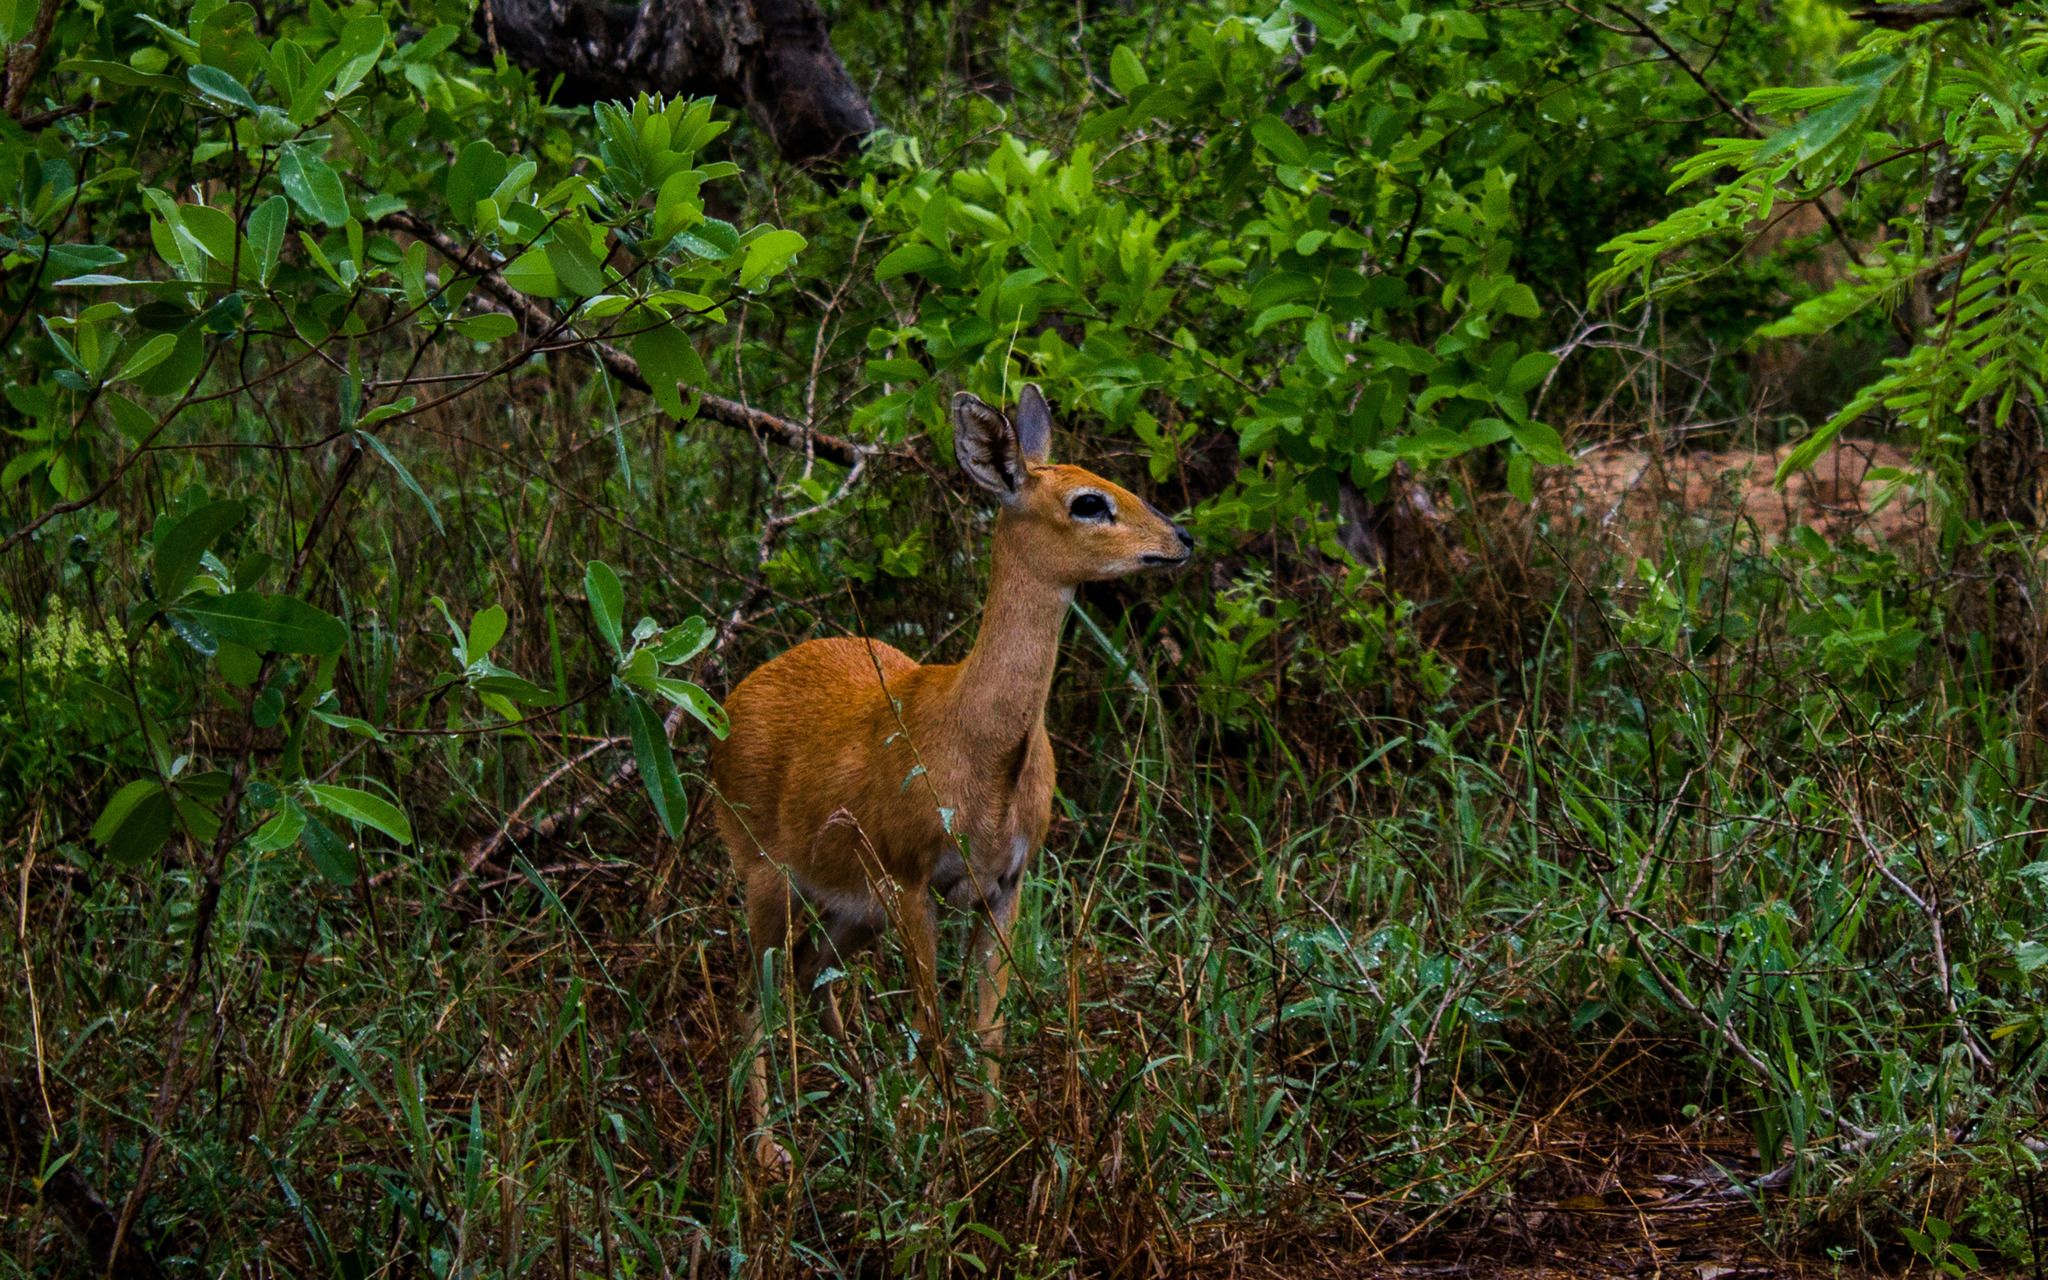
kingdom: Animalia
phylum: Chordata
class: Mammalia
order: Artiodactyla
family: Bovidae
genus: Raphicerus
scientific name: Raphicerus campestris
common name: Steenbok
